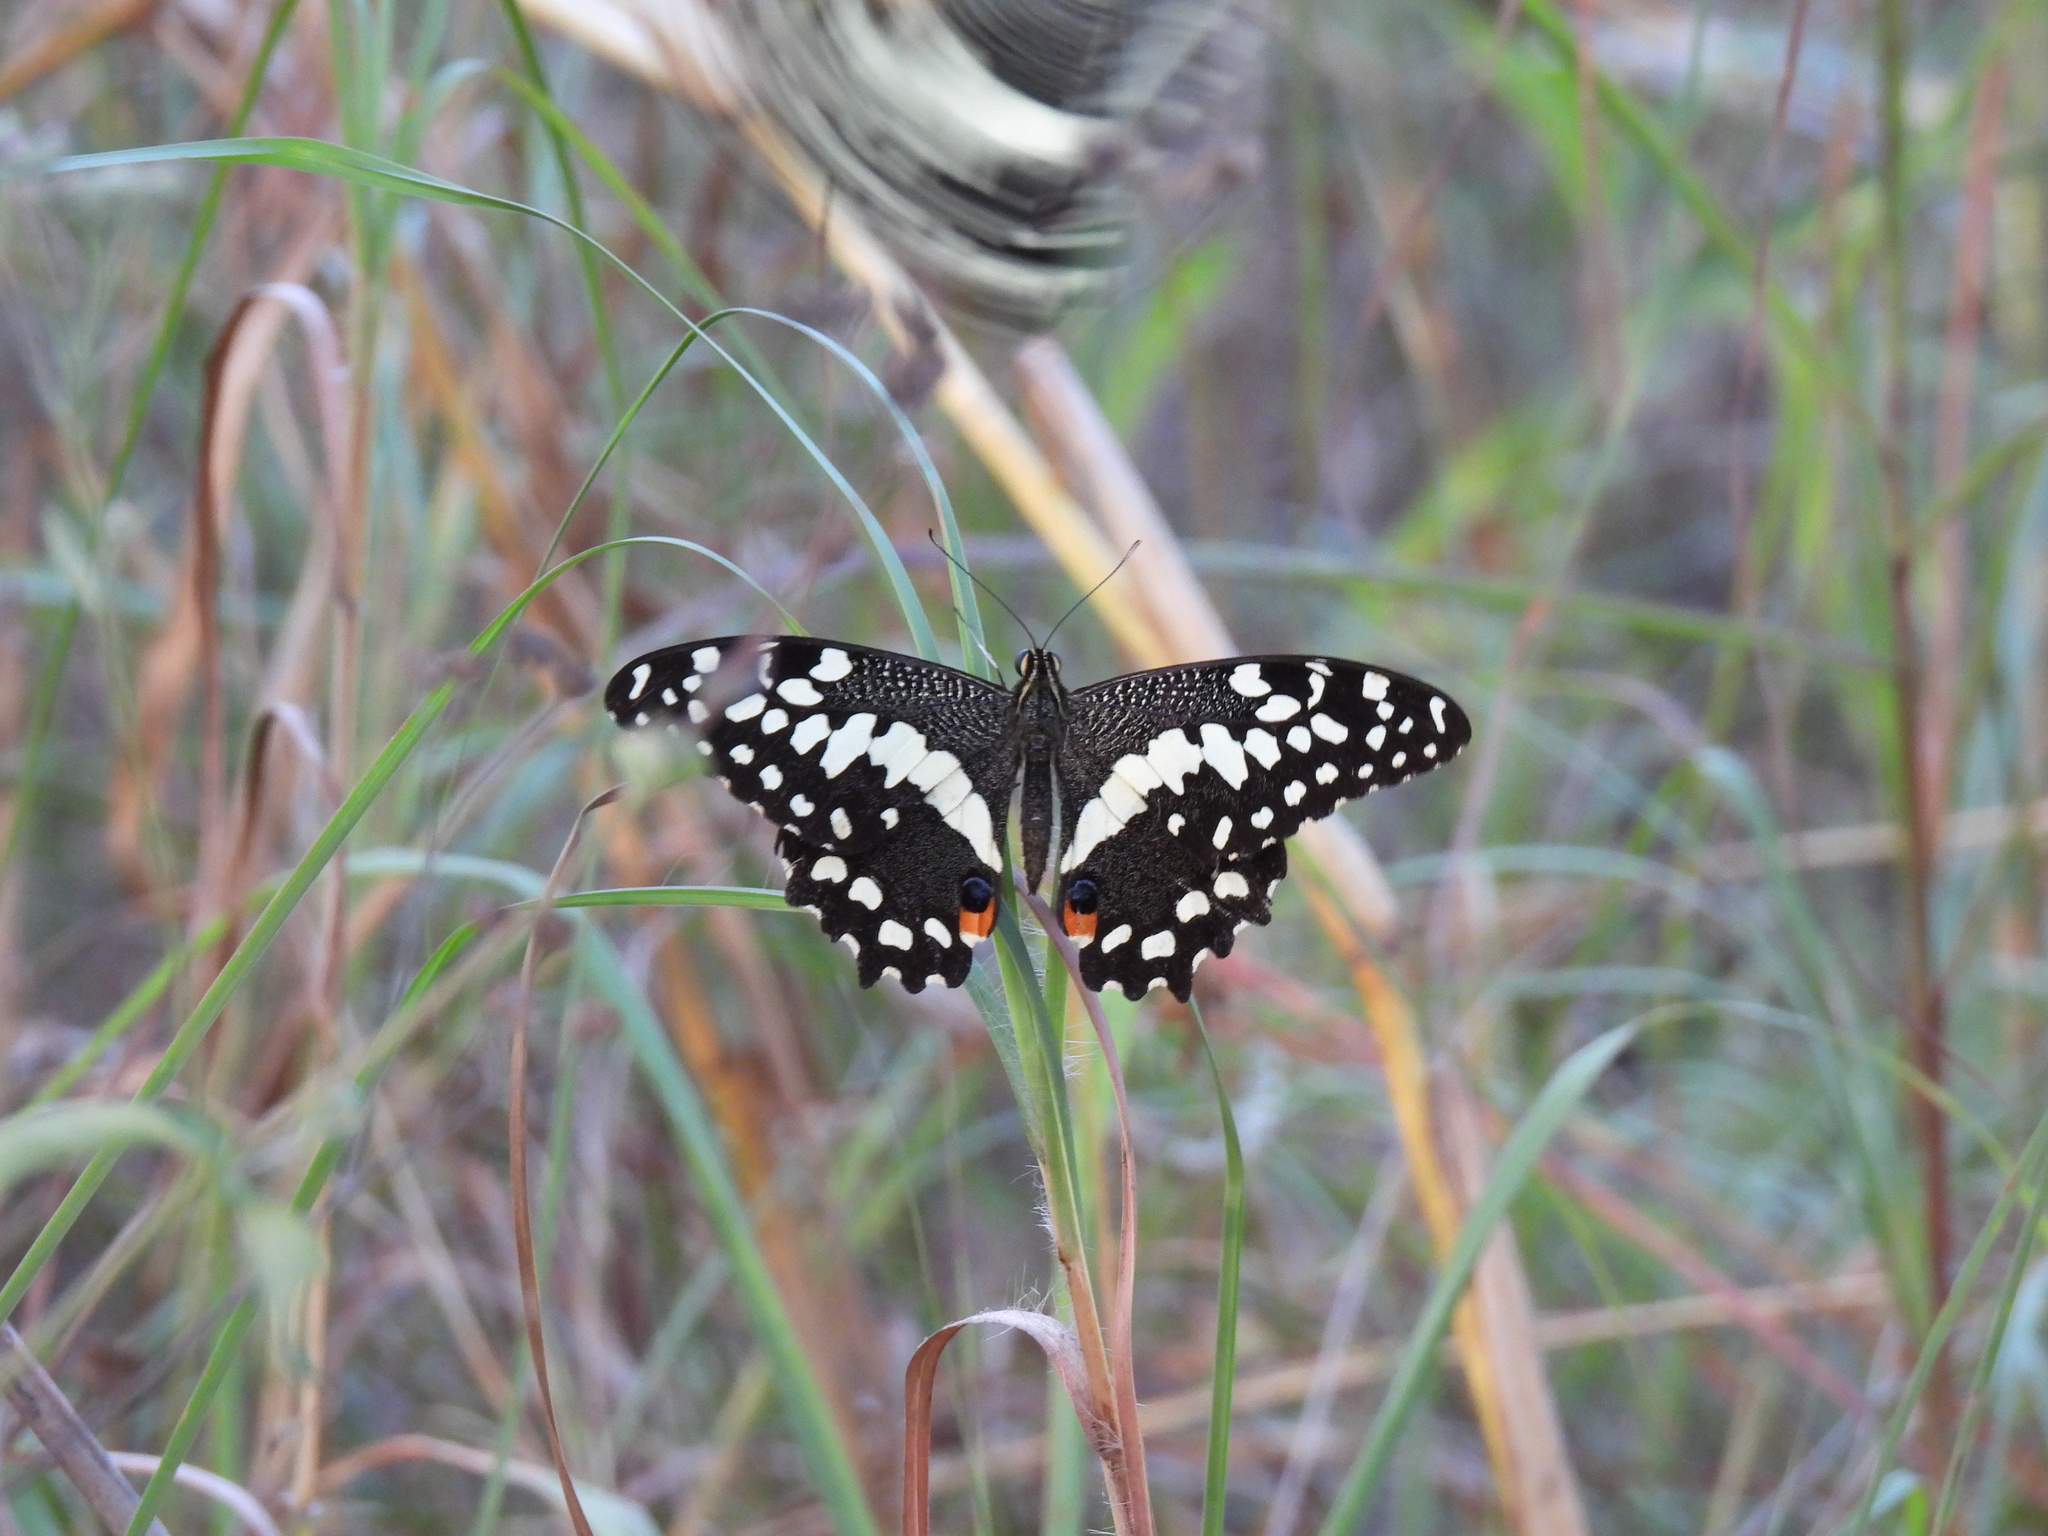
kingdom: Animalia
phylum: Arthropoda
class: Insecta
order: Lepidoptera
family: Papilionidae
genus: Papilio
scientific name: Papilio demodocus
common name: Christmas butterfly
